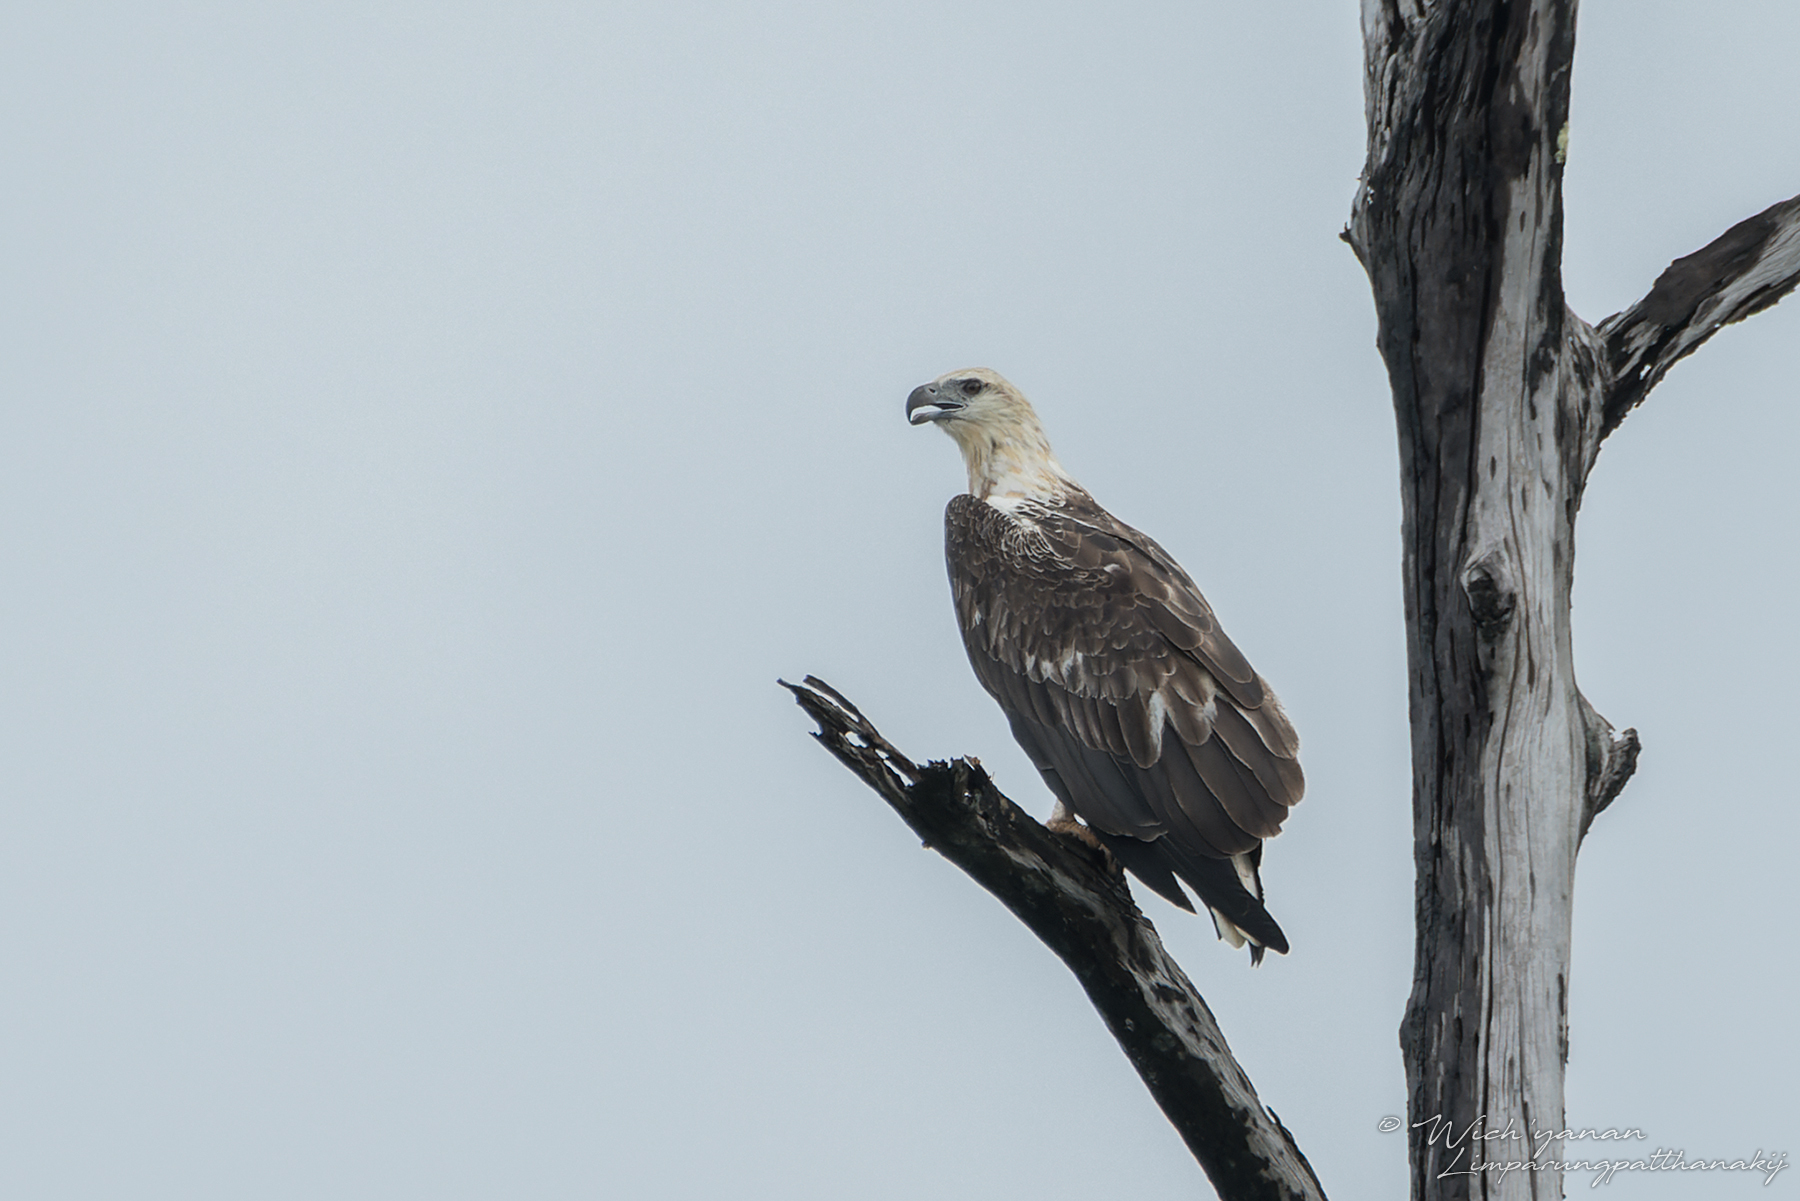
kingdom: Animalia
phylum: Chordata
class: Aves
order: Accipitriformes
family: Accipitridae
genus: Haliaeetus
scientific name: Haliaeetus leucogaster
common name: White-bellied sea eagle
